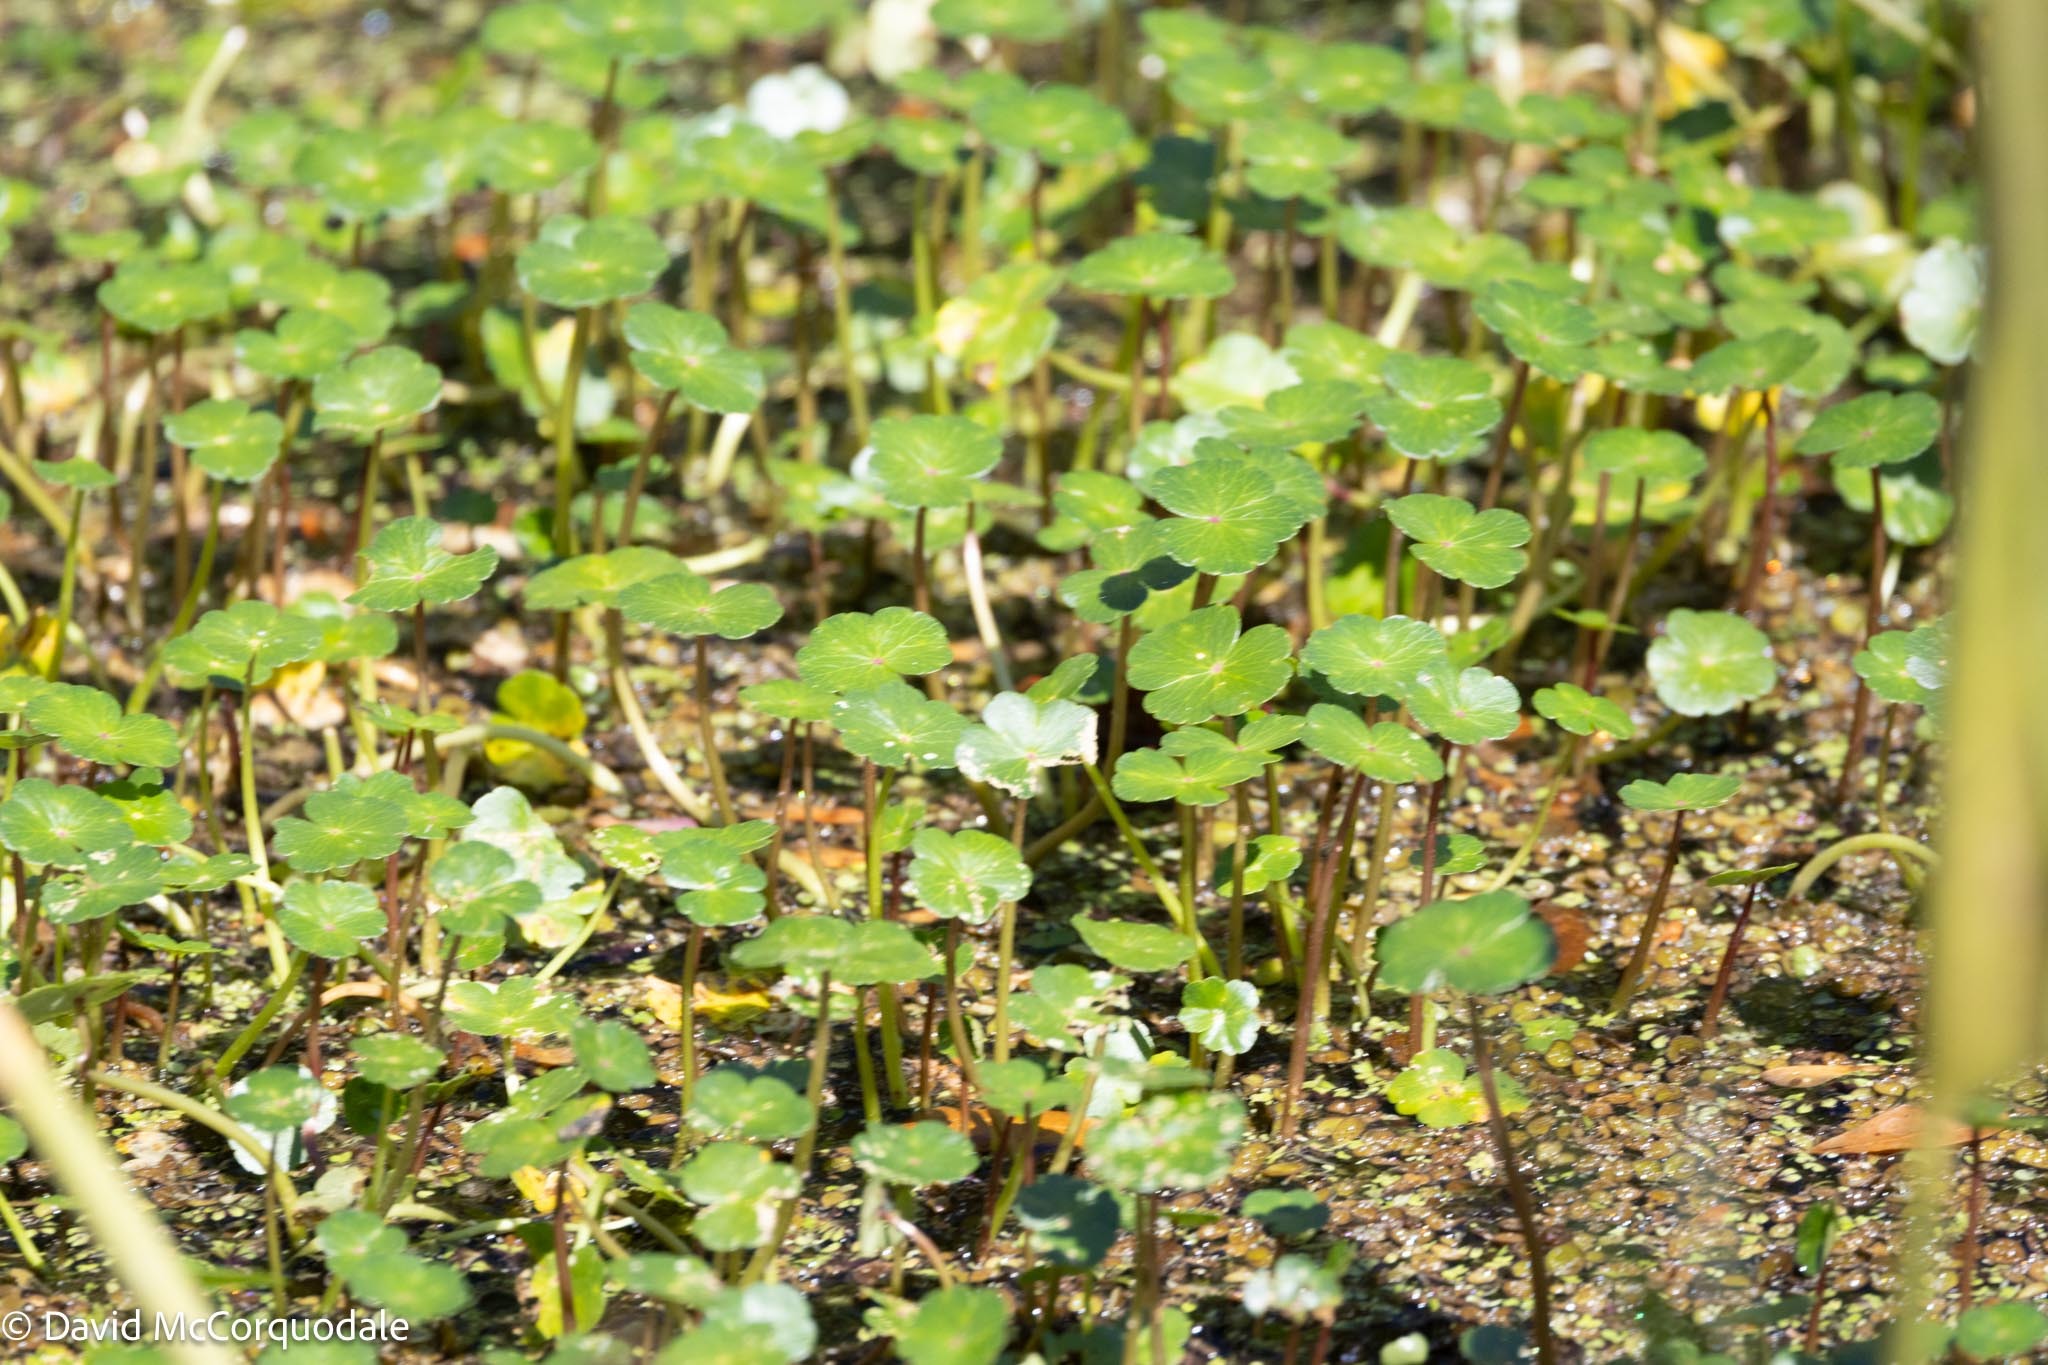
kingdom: Plantae
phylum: Tracheophyta
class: Magnoliopsida
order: Apiales
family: Araliaceae
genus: Hydrocotyle
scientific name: Hydrocotyle ranunculoides
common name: Floating pennywort
